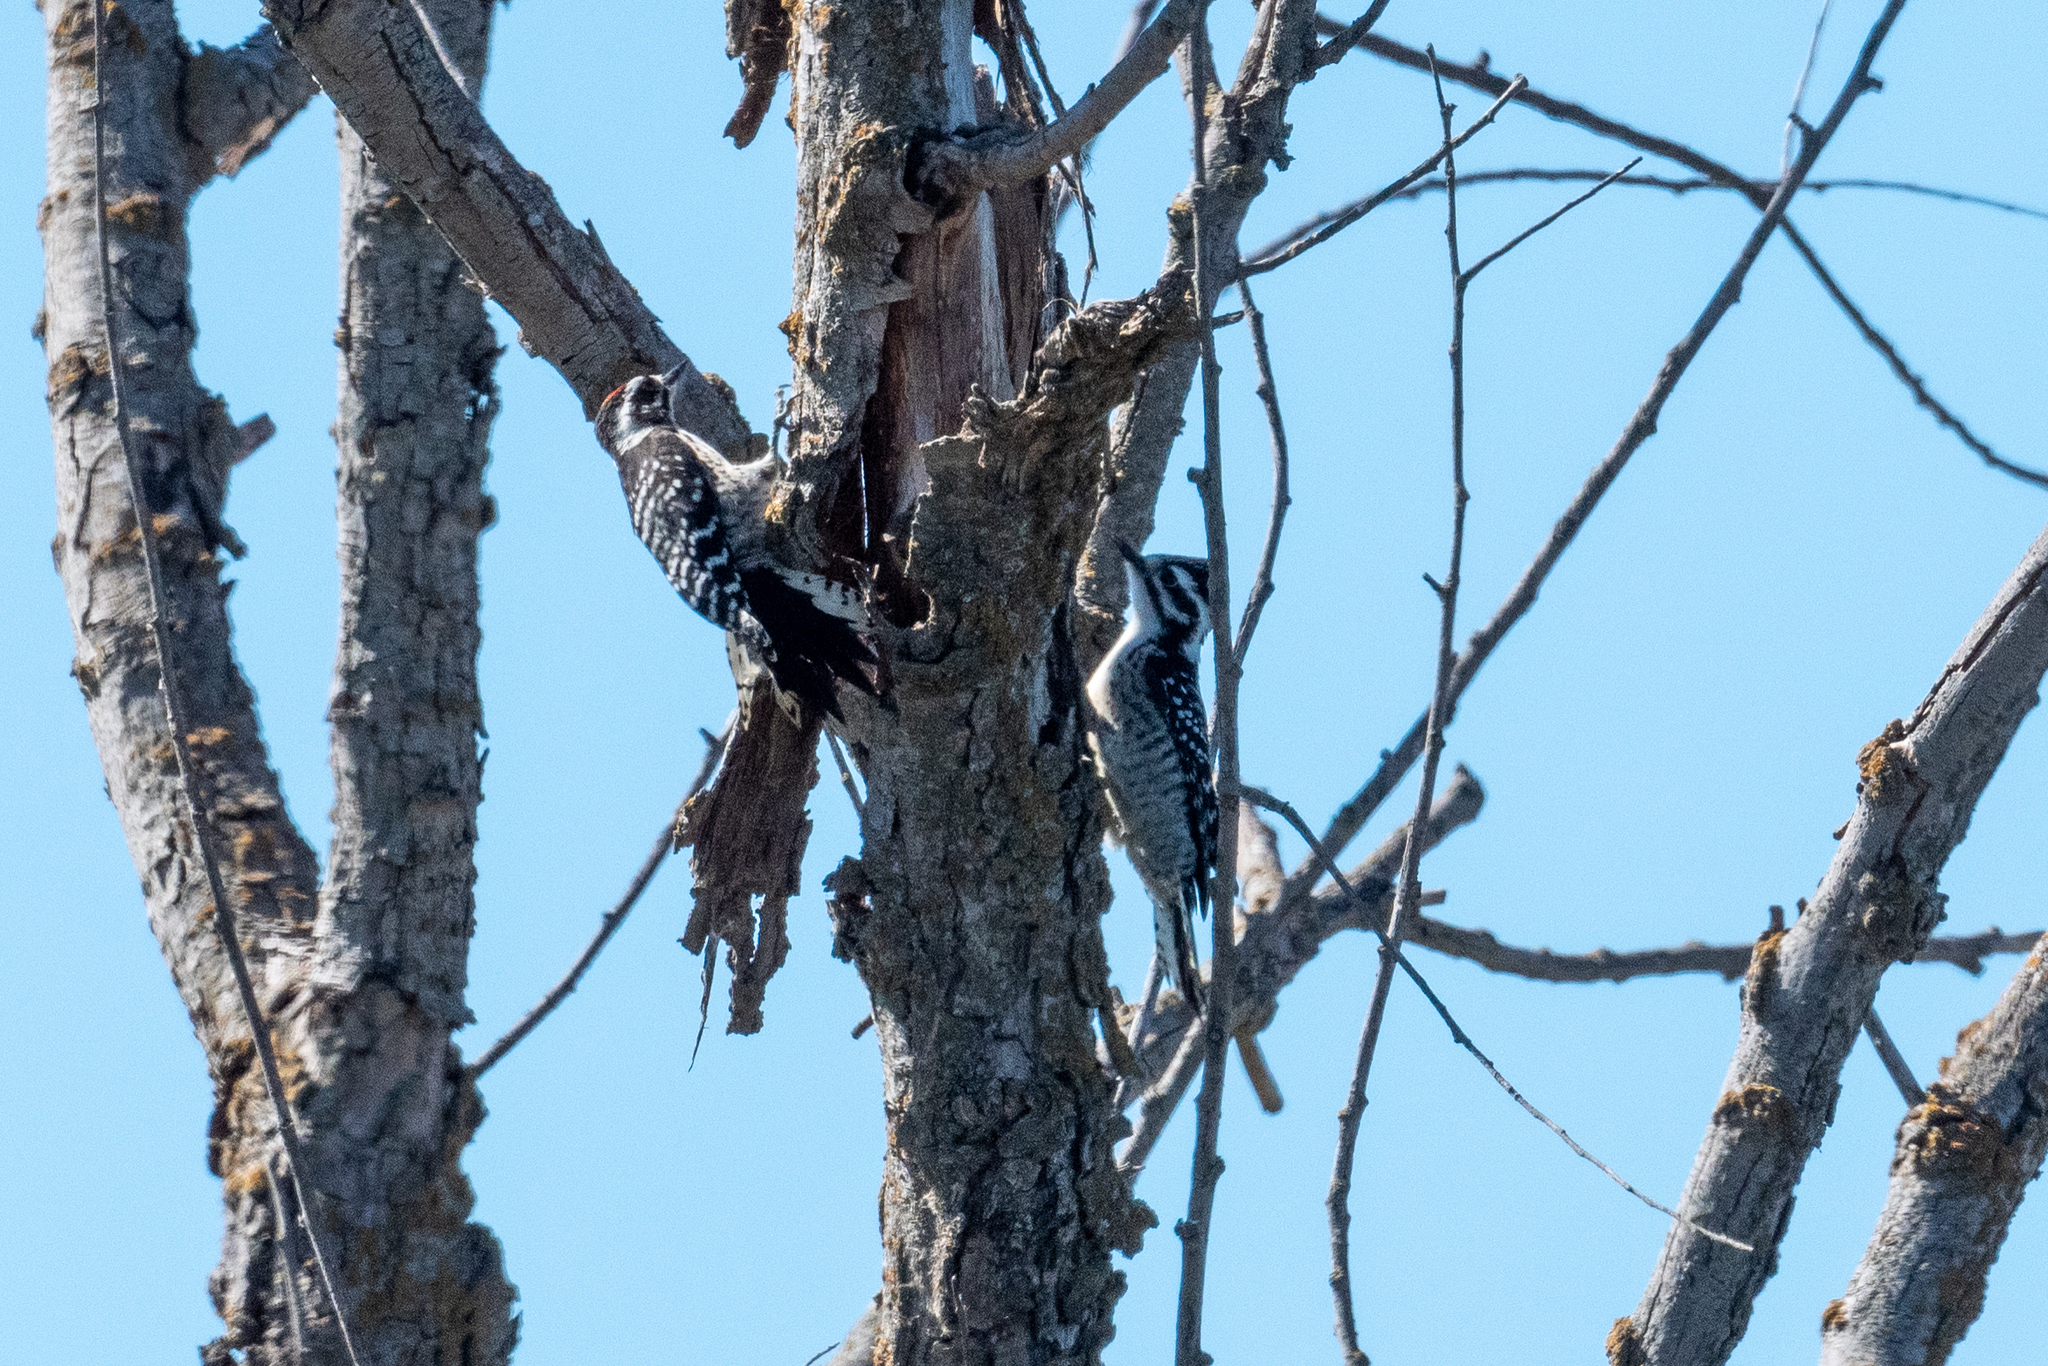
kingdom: Animalia
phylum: Chordata
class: Aves
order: Piciformes
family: Picidae
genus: Dryobates
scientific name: Dryobates nuttallii
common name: Nuttall's woodpecker
